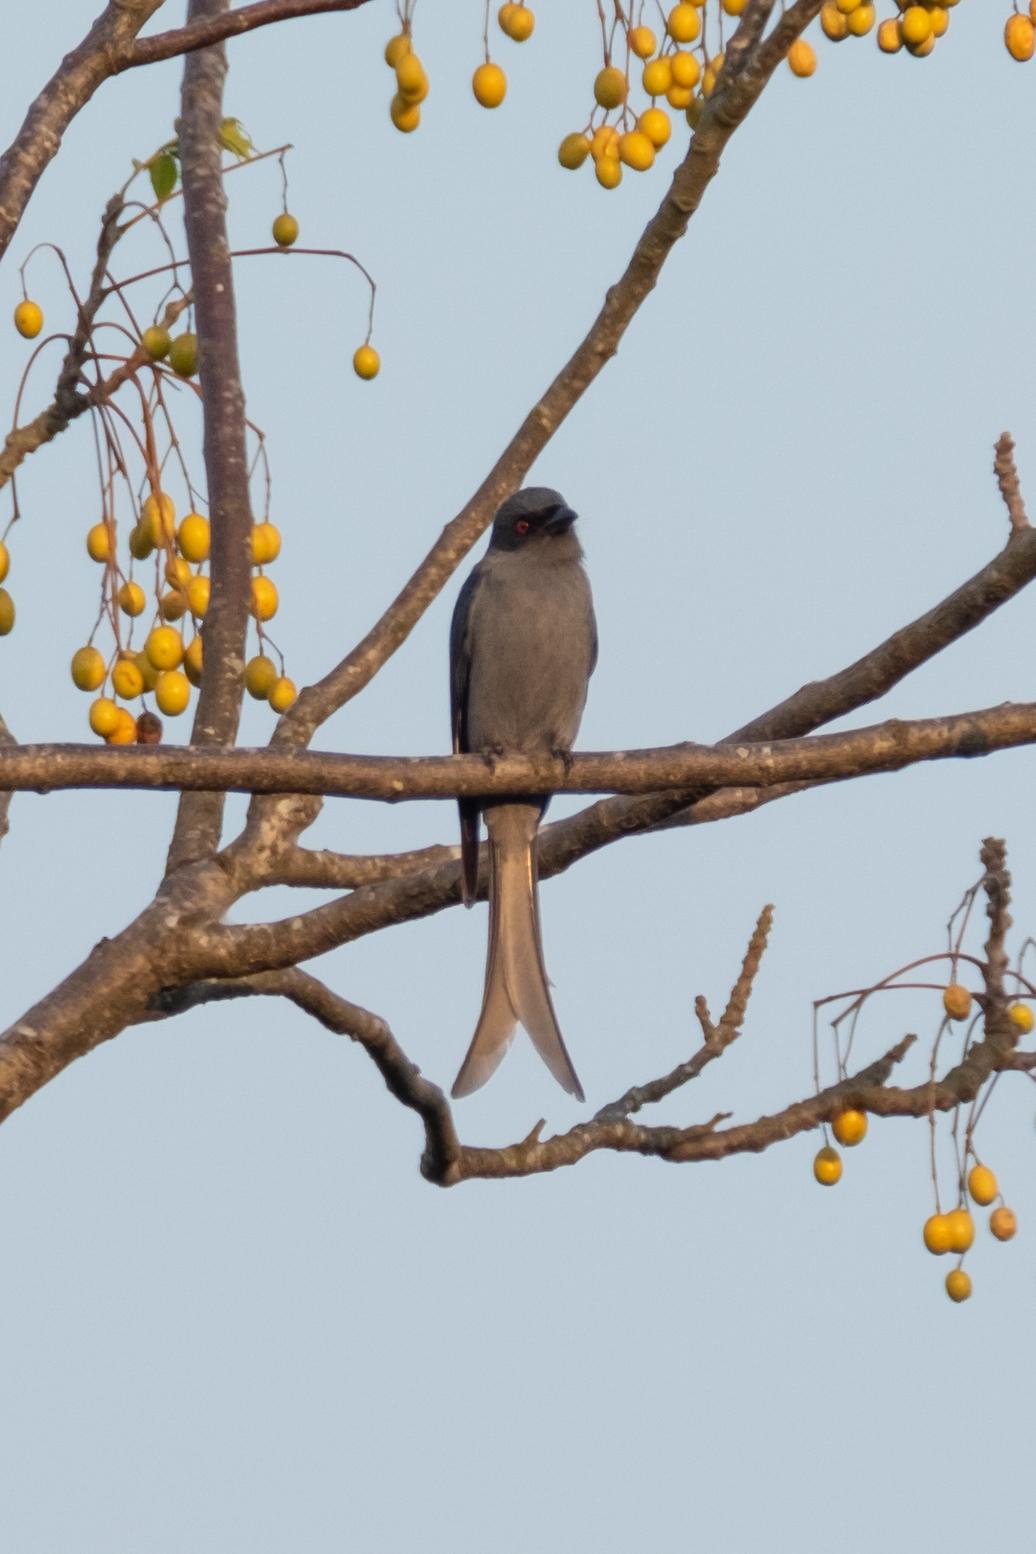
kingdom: Animalia
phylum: Chordata
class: Aves
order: Passeriformes
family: Dicruridae
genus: Dicrurus
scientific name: Dicrurus leucophaeus
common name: Ashy drongo
